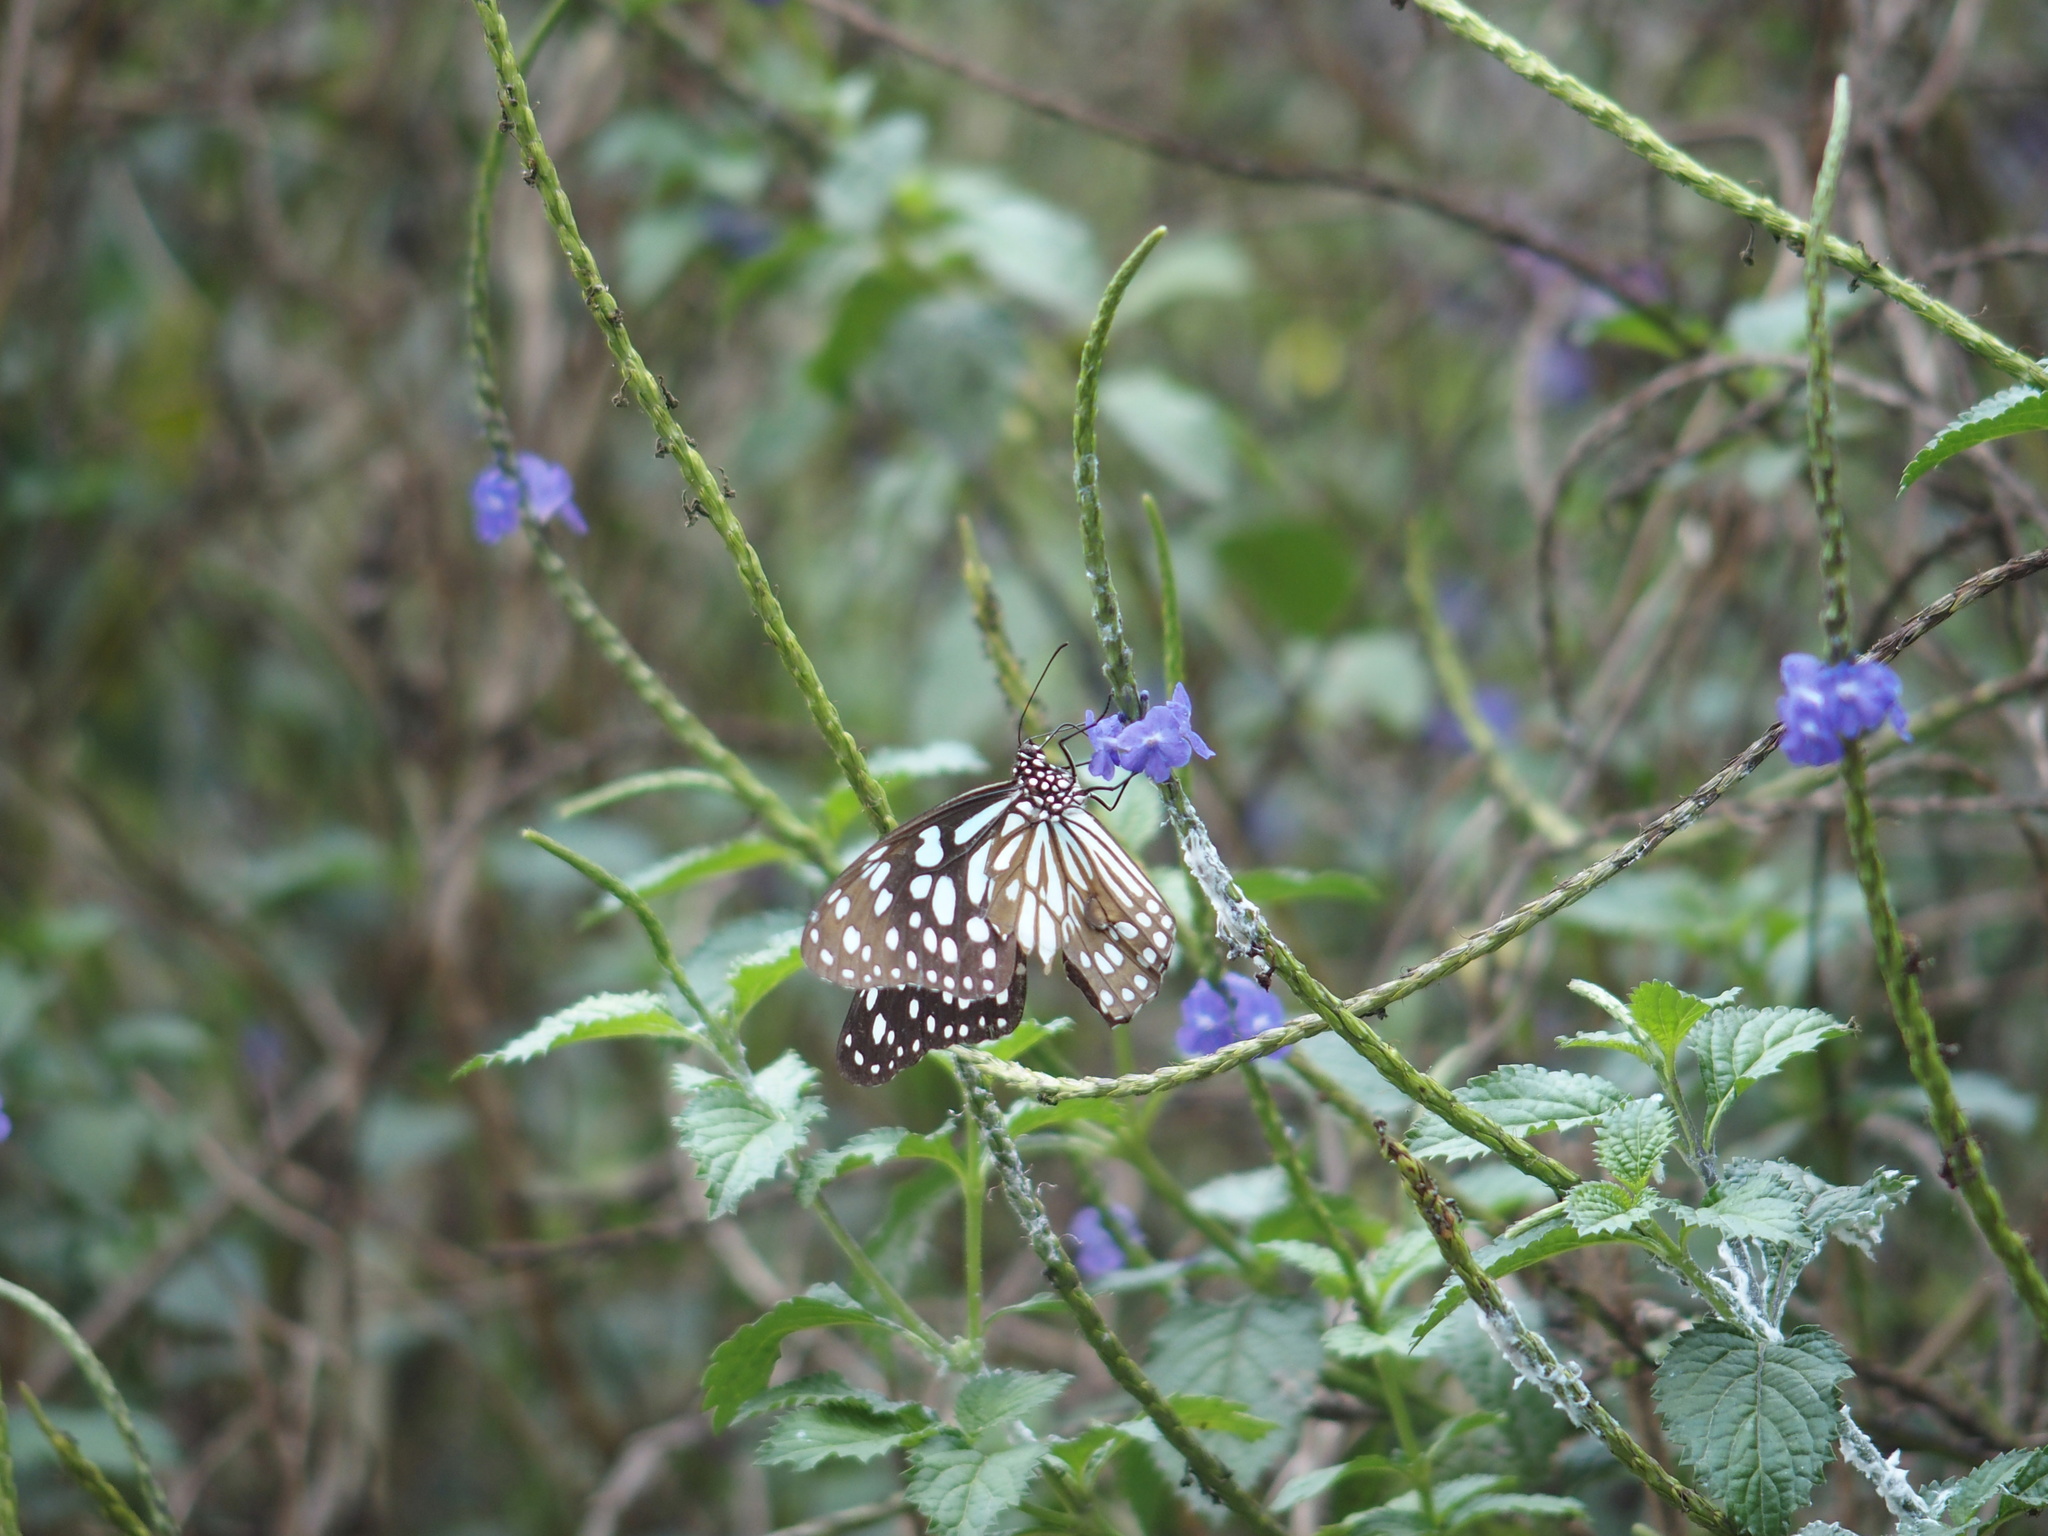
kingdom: Animalia
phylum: Arthropoda
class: Insecta
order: Lepidoptera
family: Nymphalidae
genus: Tirumala
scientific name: Tirumala limniace
